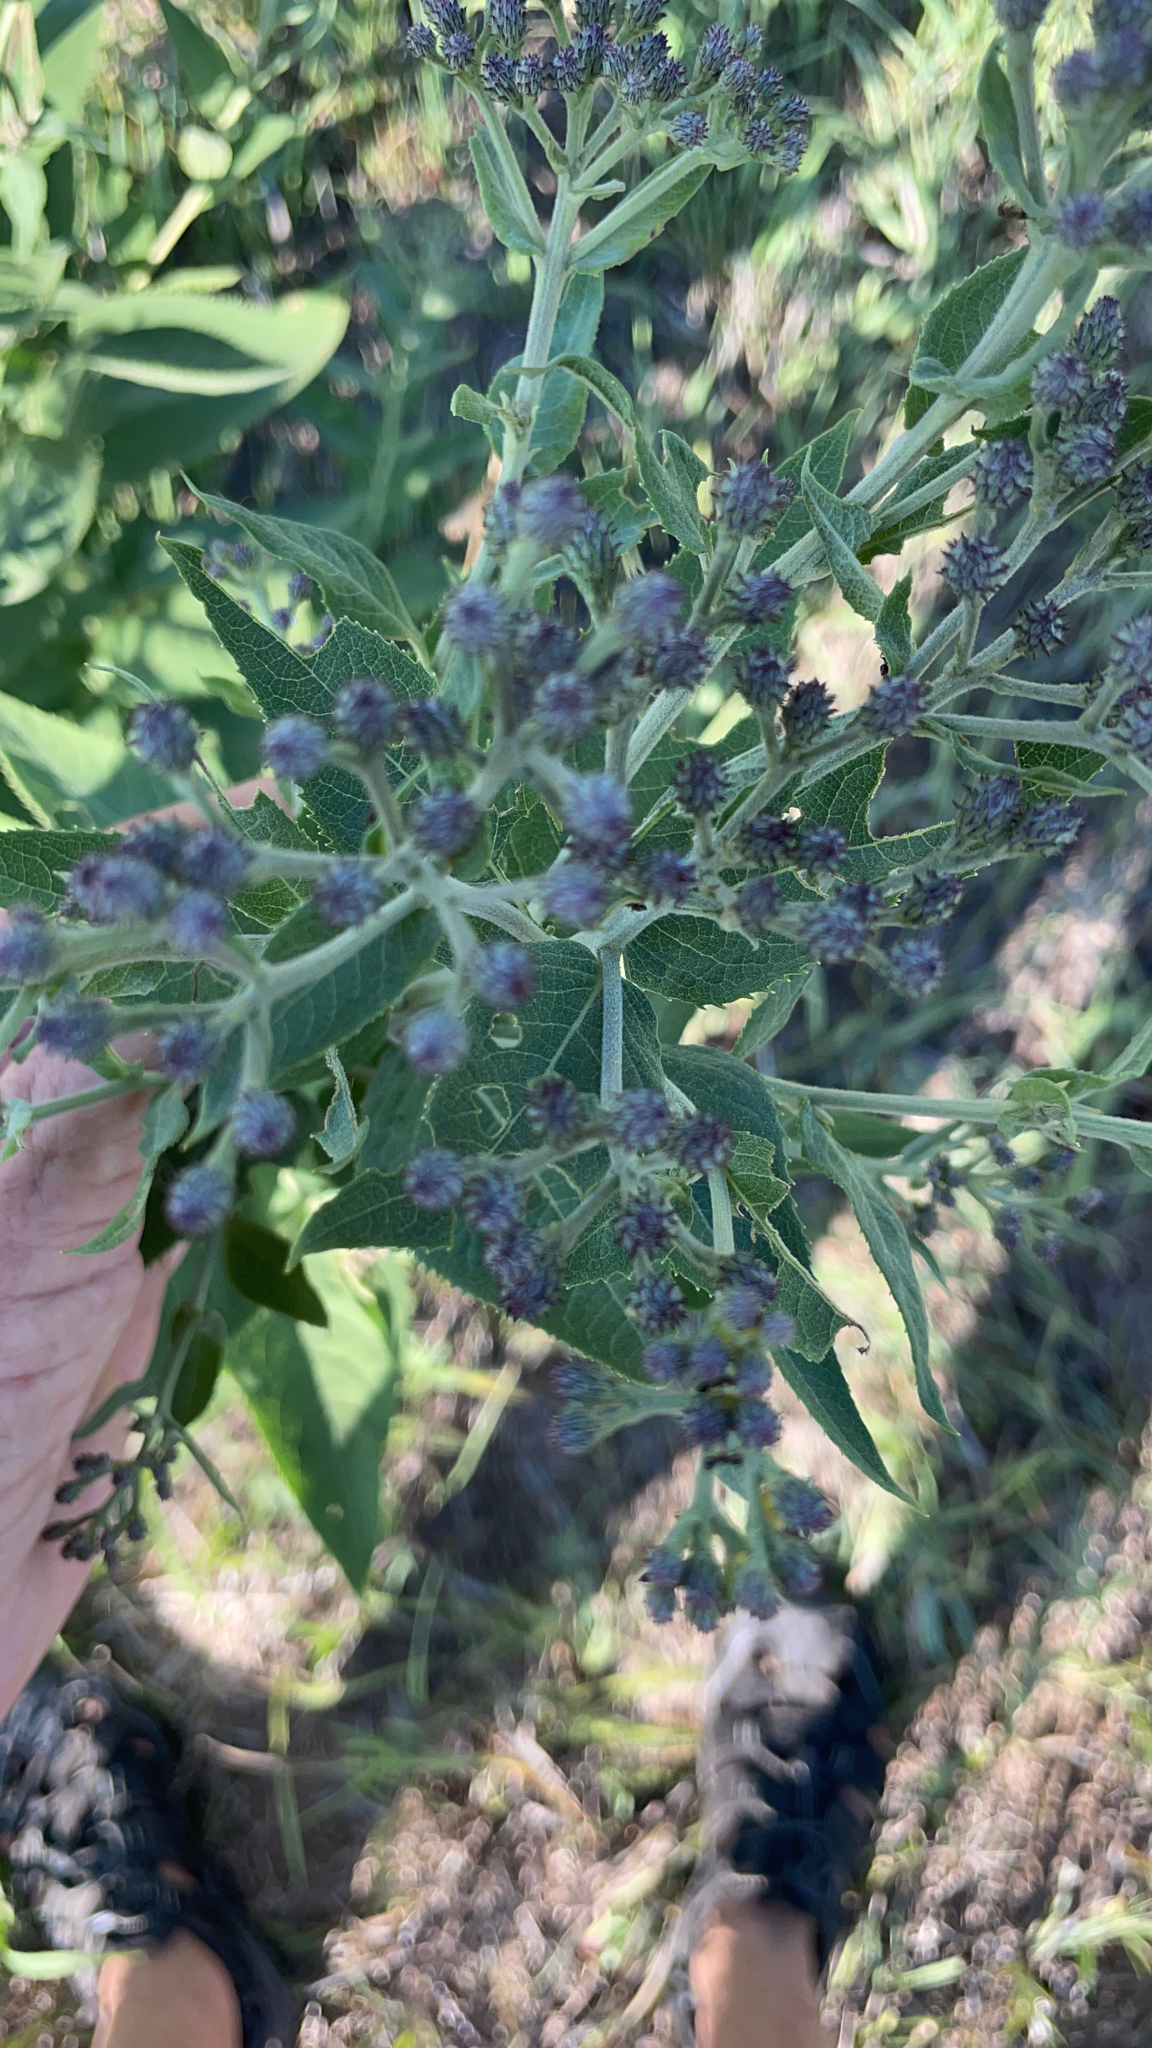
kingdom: Plantae
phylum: Tracheophyta
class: Magnoliopsida
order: Asterales
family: Asteraceae
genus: Vernonia
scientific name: Vernonia baldwinii
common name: Western ironweed
